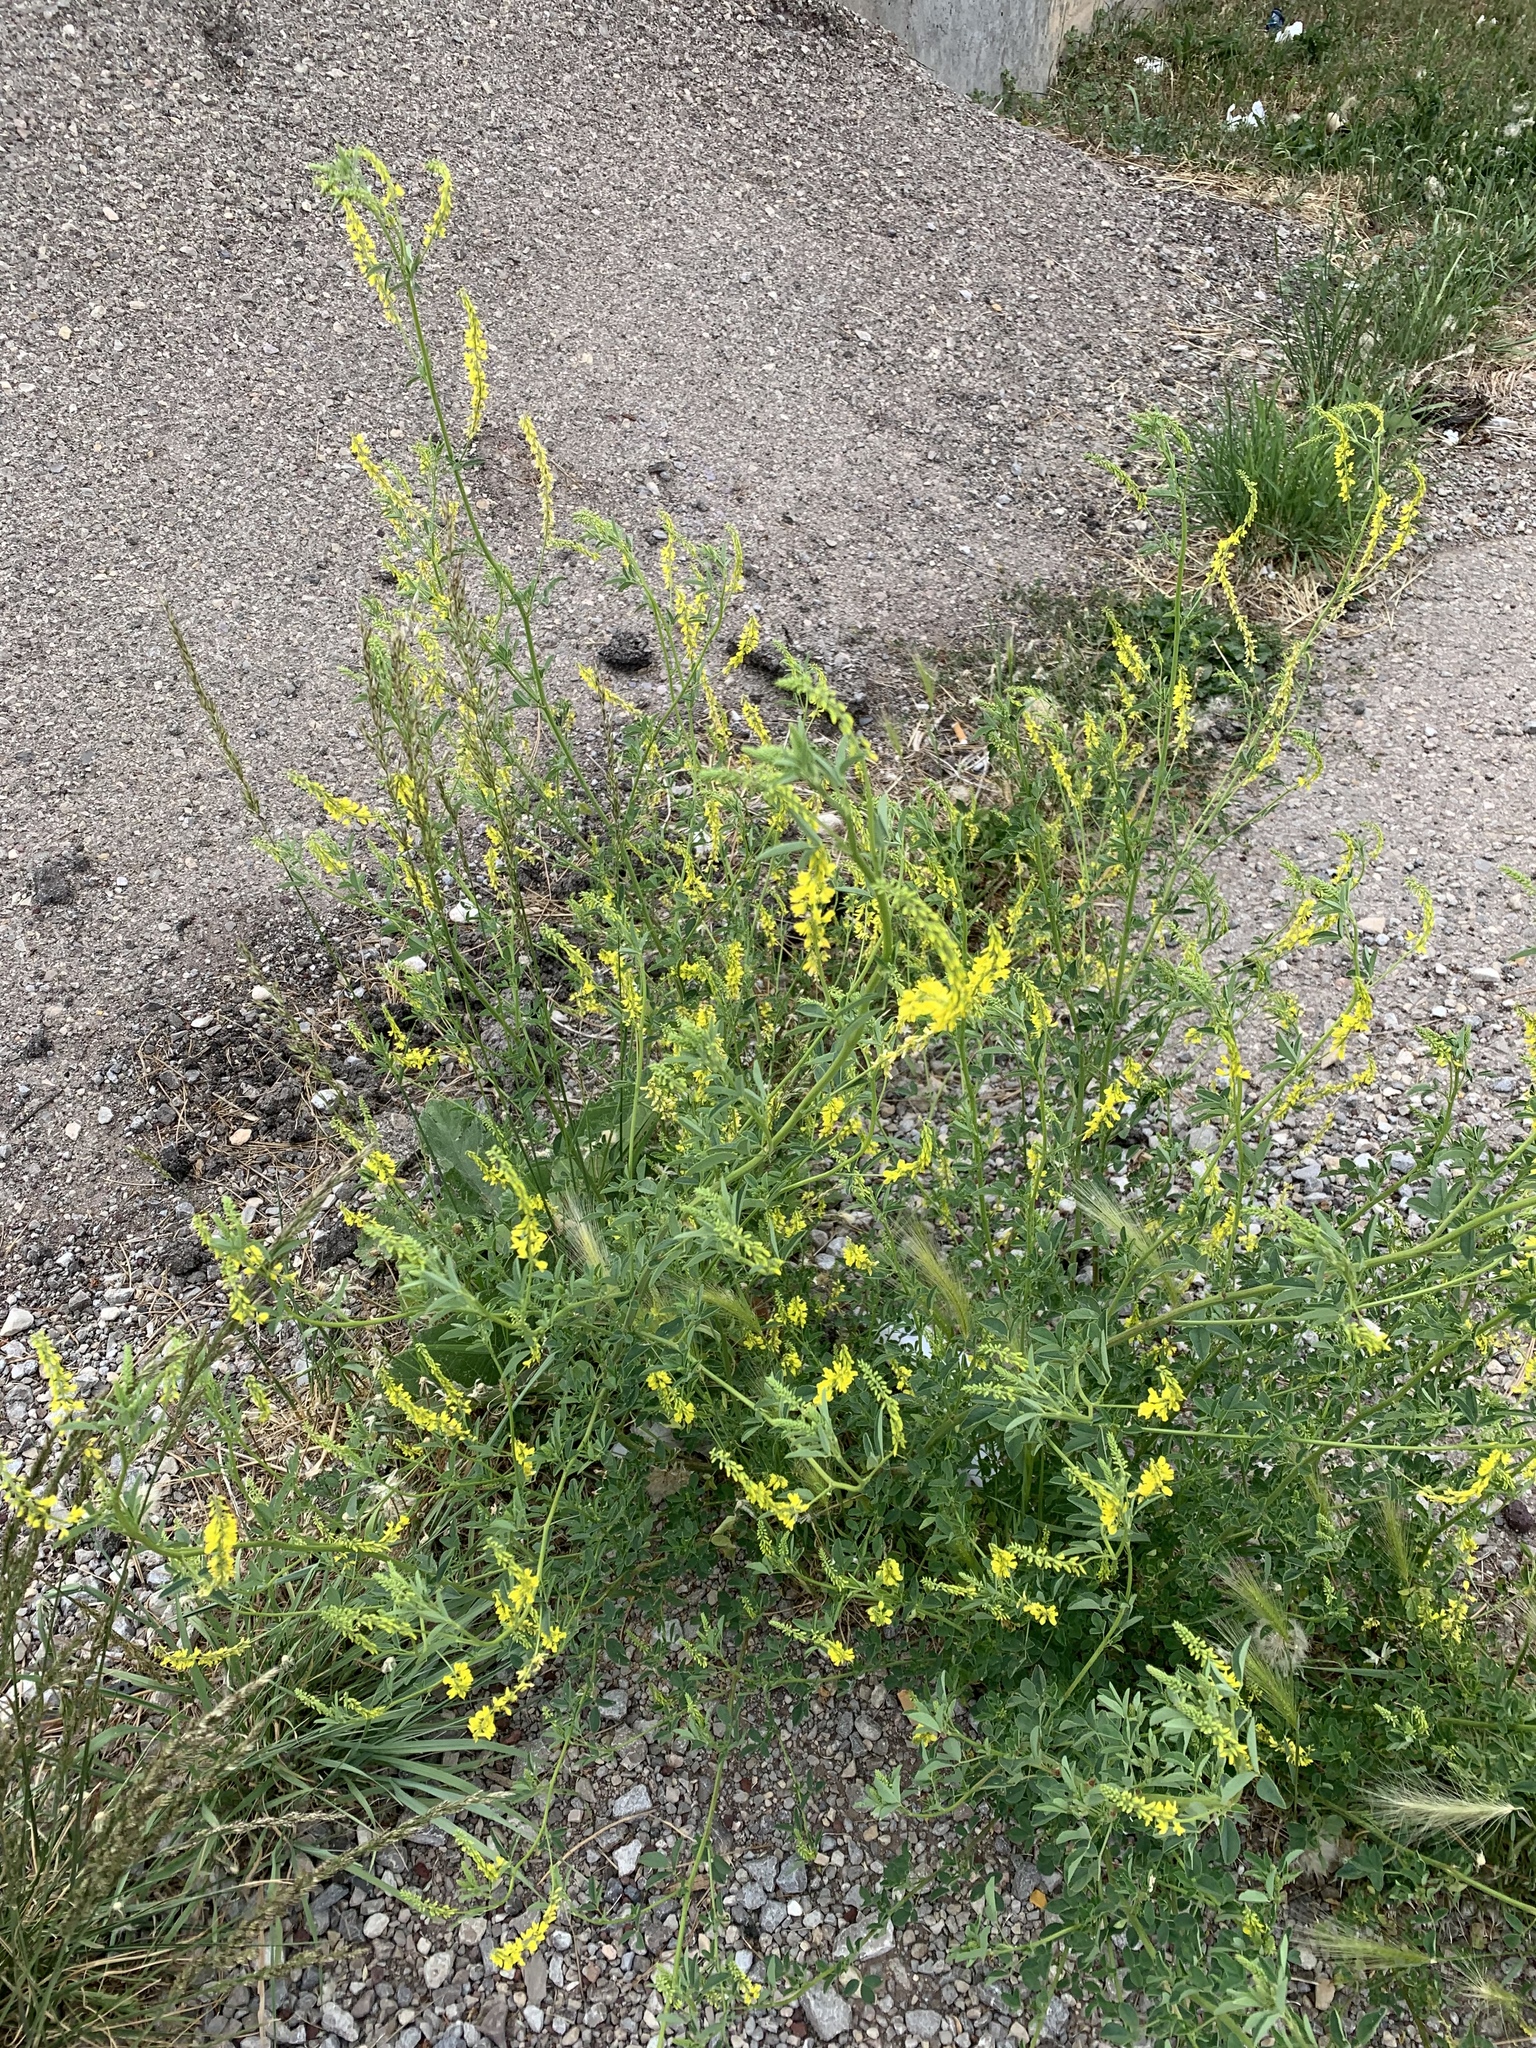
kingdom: Plantae
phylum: Tracheophyta
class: Magnoliopsida
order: Fabales
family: Fabaceae
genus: Melilotus
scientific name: Melilotus officinalis
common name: Sweetclover
